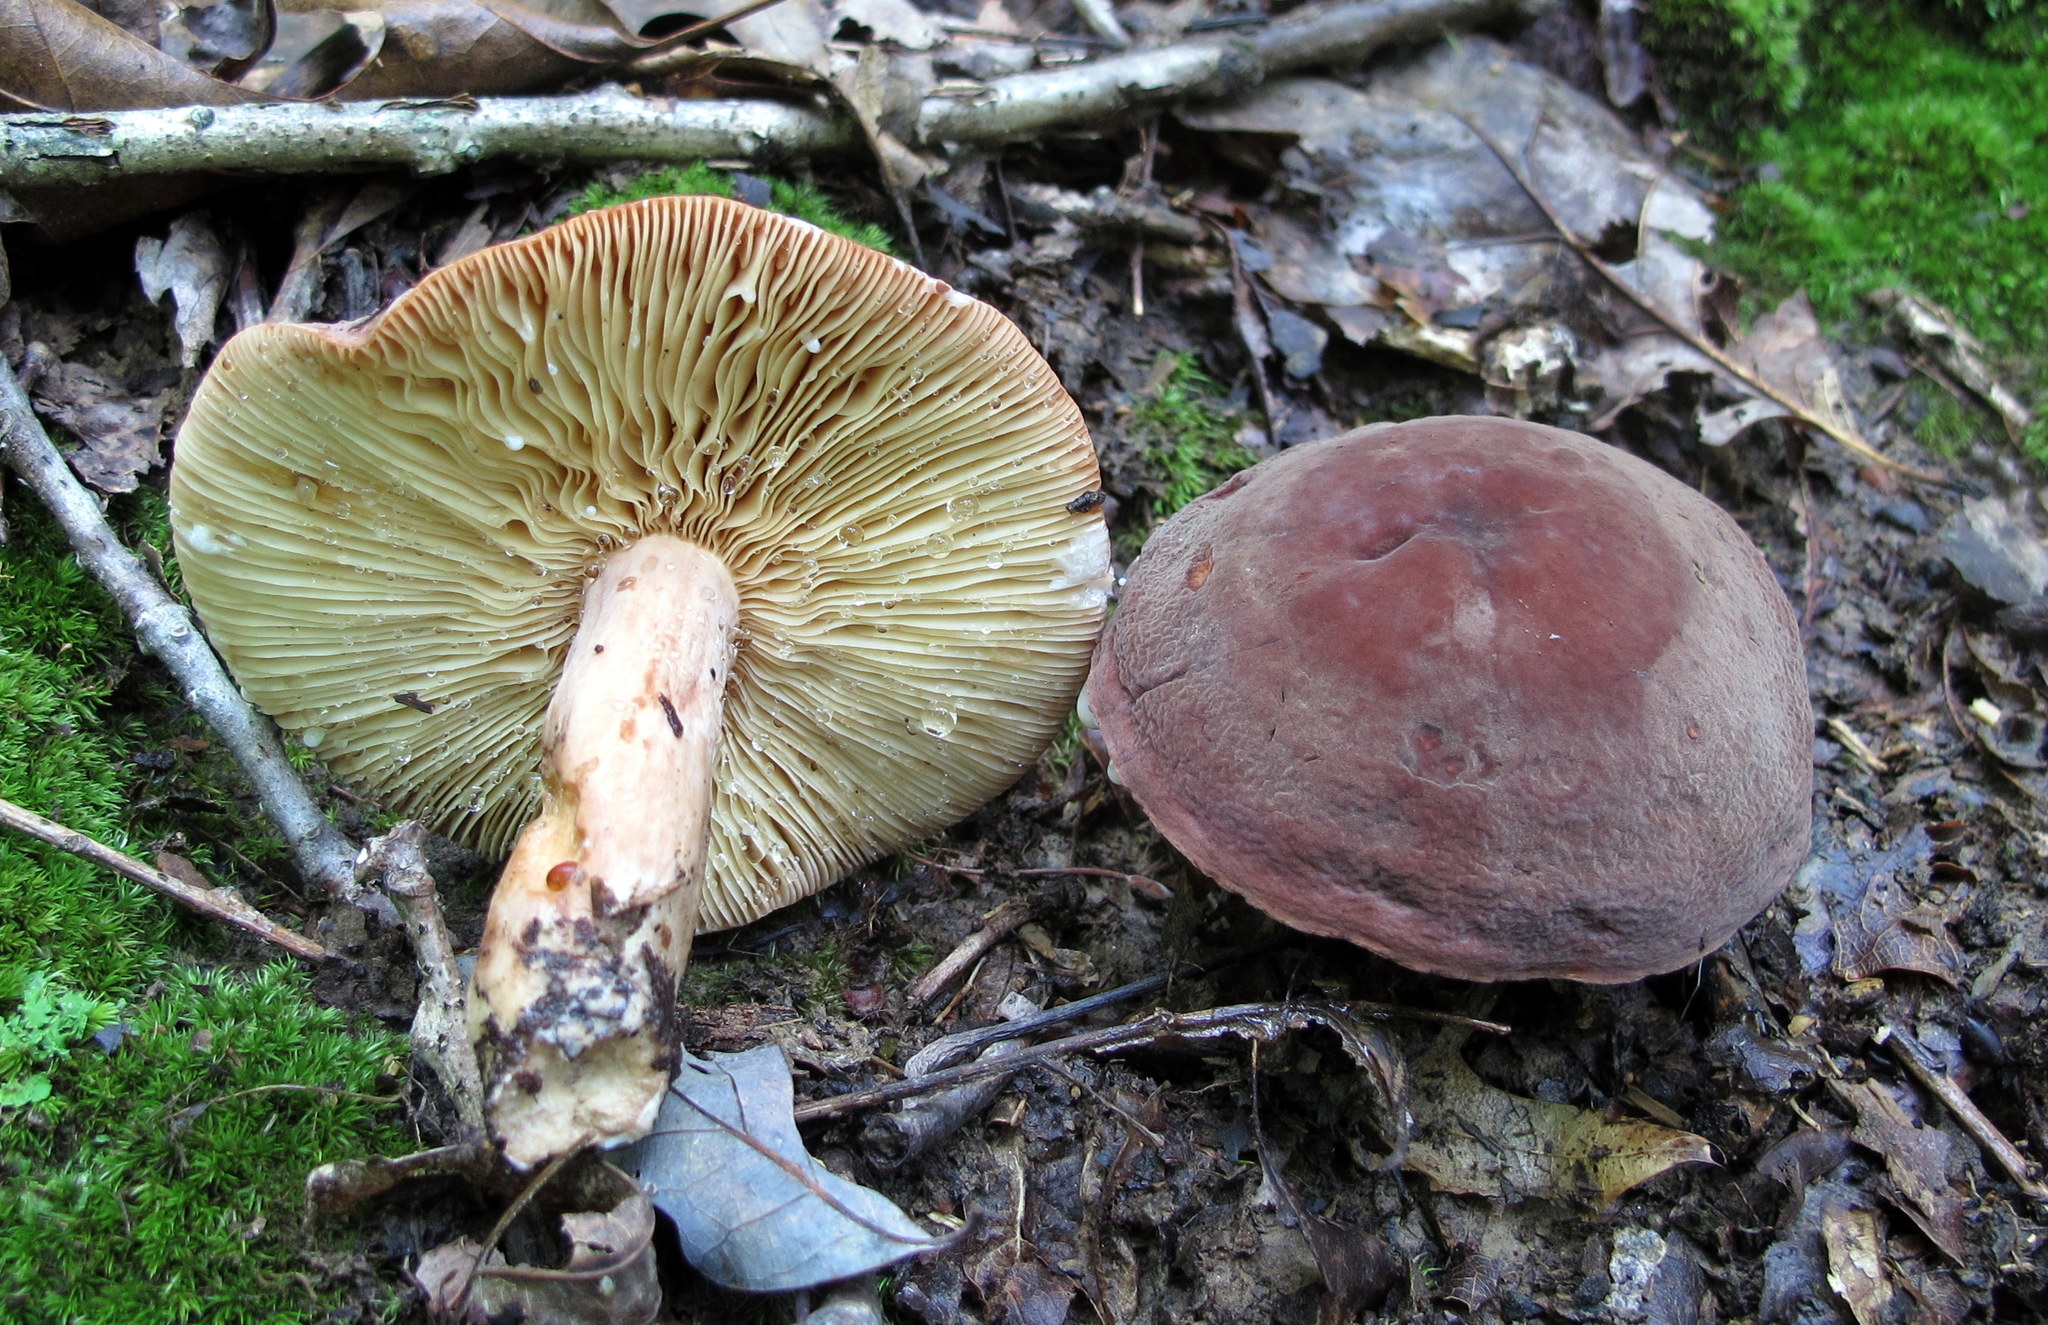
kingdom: Fungi
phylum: Basidiomycota
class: Agaricomycetes
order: Russulales
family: Russulaceae
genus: Lactarius
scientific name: Lactarius corrugis
